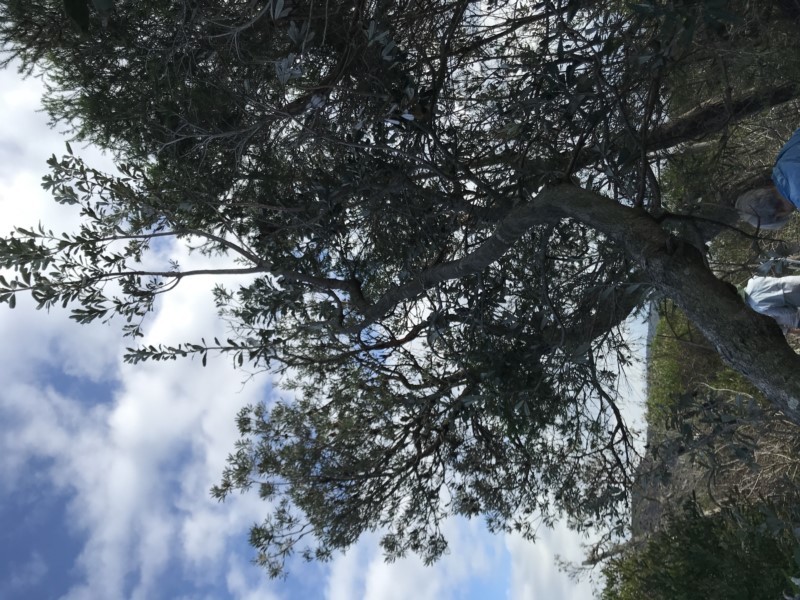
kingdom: Plantae
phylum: Tracheophyta
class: Magnoliopsida
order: Proteales
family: Proteaceae
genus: Banksia
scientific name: Banksia integrifolia
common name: White-honeysuckle
